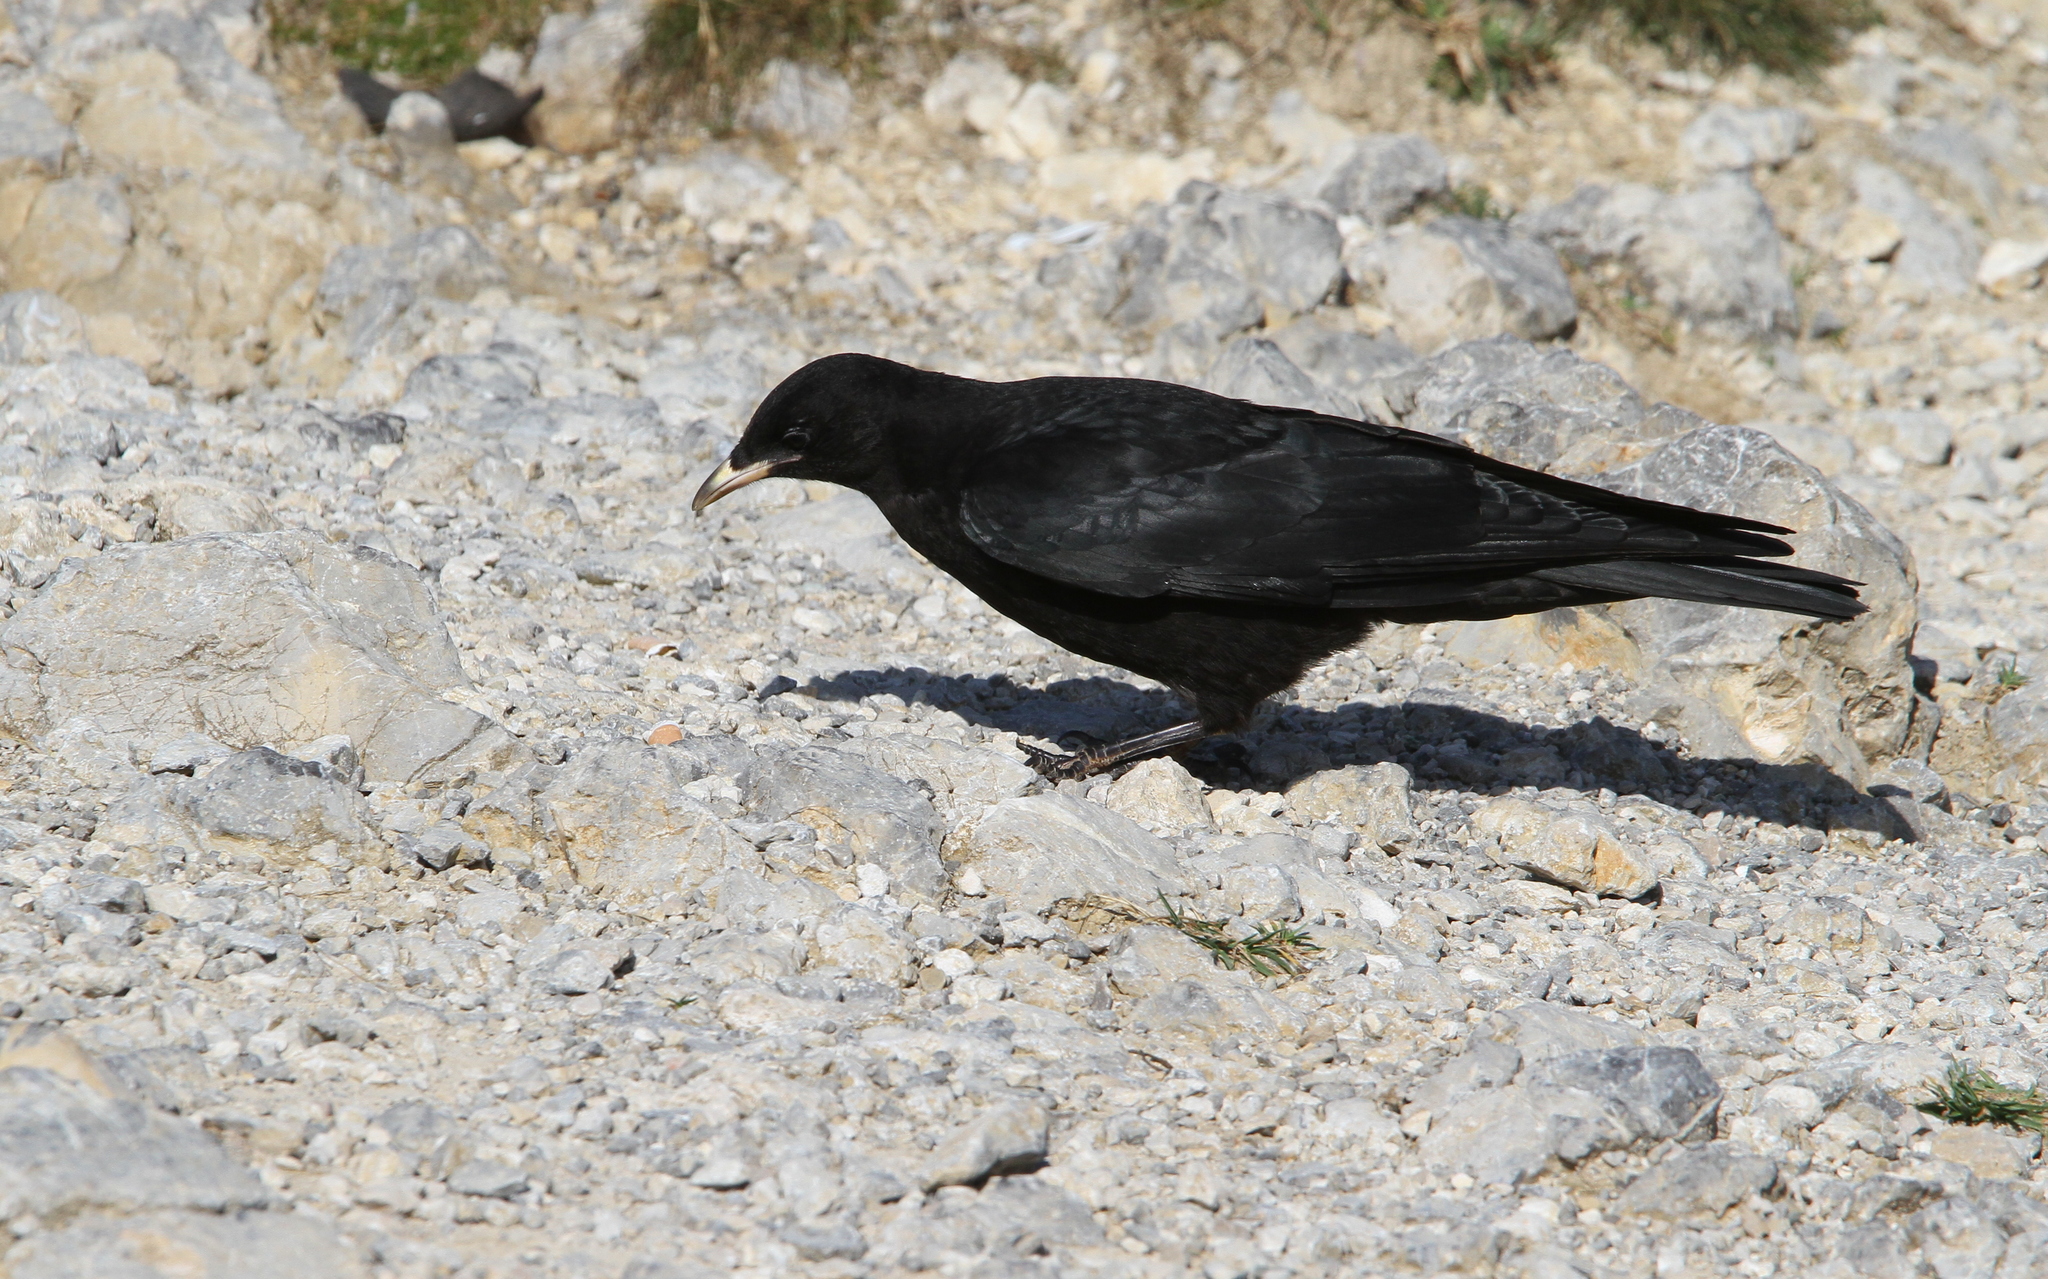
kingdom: Animalia
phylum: Chordata
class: Aves
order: Passeriformes
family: Corvidae
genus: Pyrrhocorax
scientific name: Pyrrhocorax graculus
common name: Alpine chough
